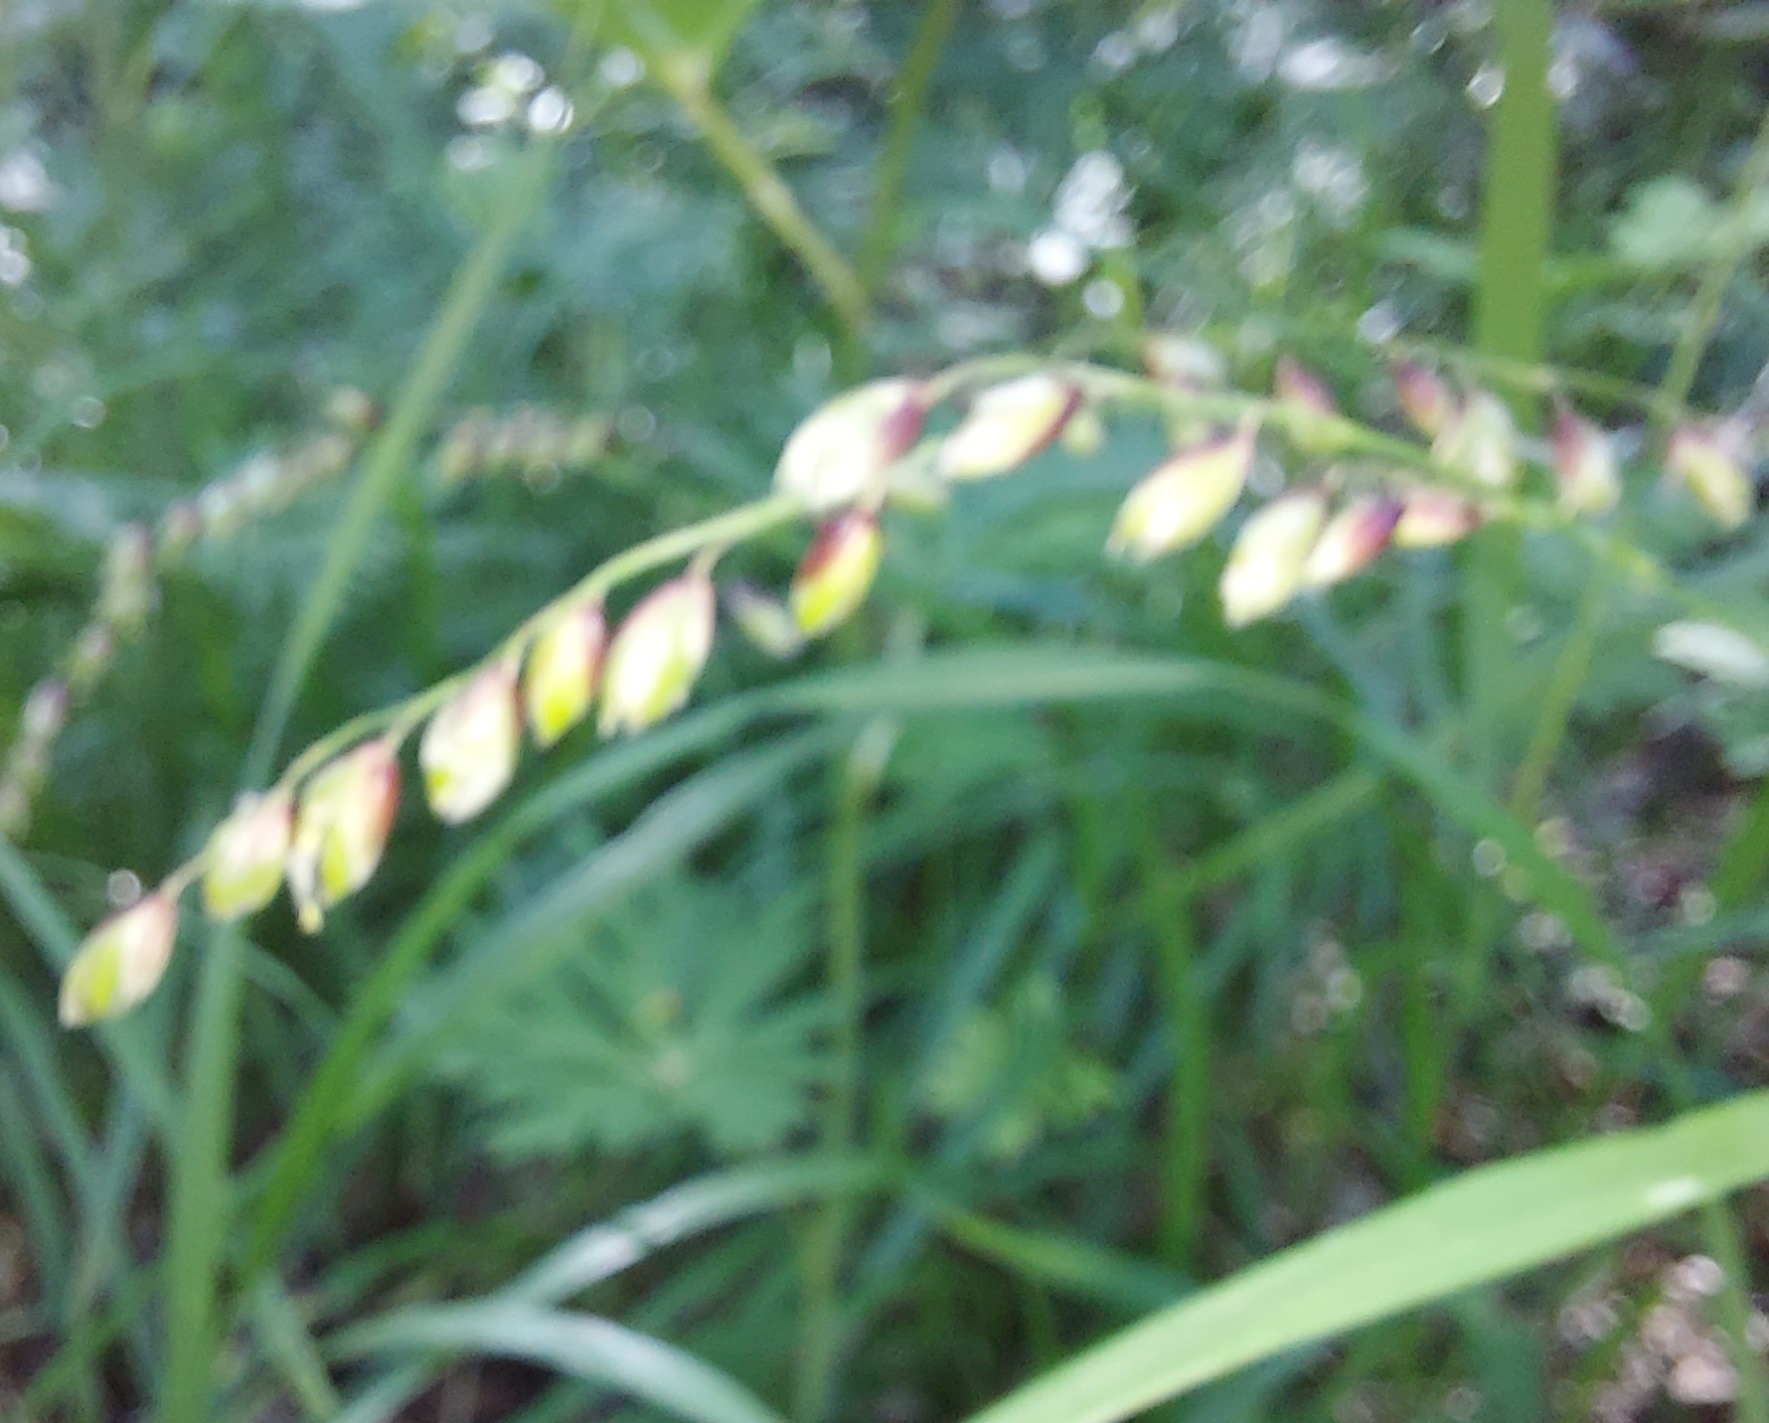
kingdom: Plantae
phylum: Tracheophyta
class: Liliopsida
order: Poales
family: Poaceae
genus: Melica
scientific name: Melica nutans
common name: Mountain melick
